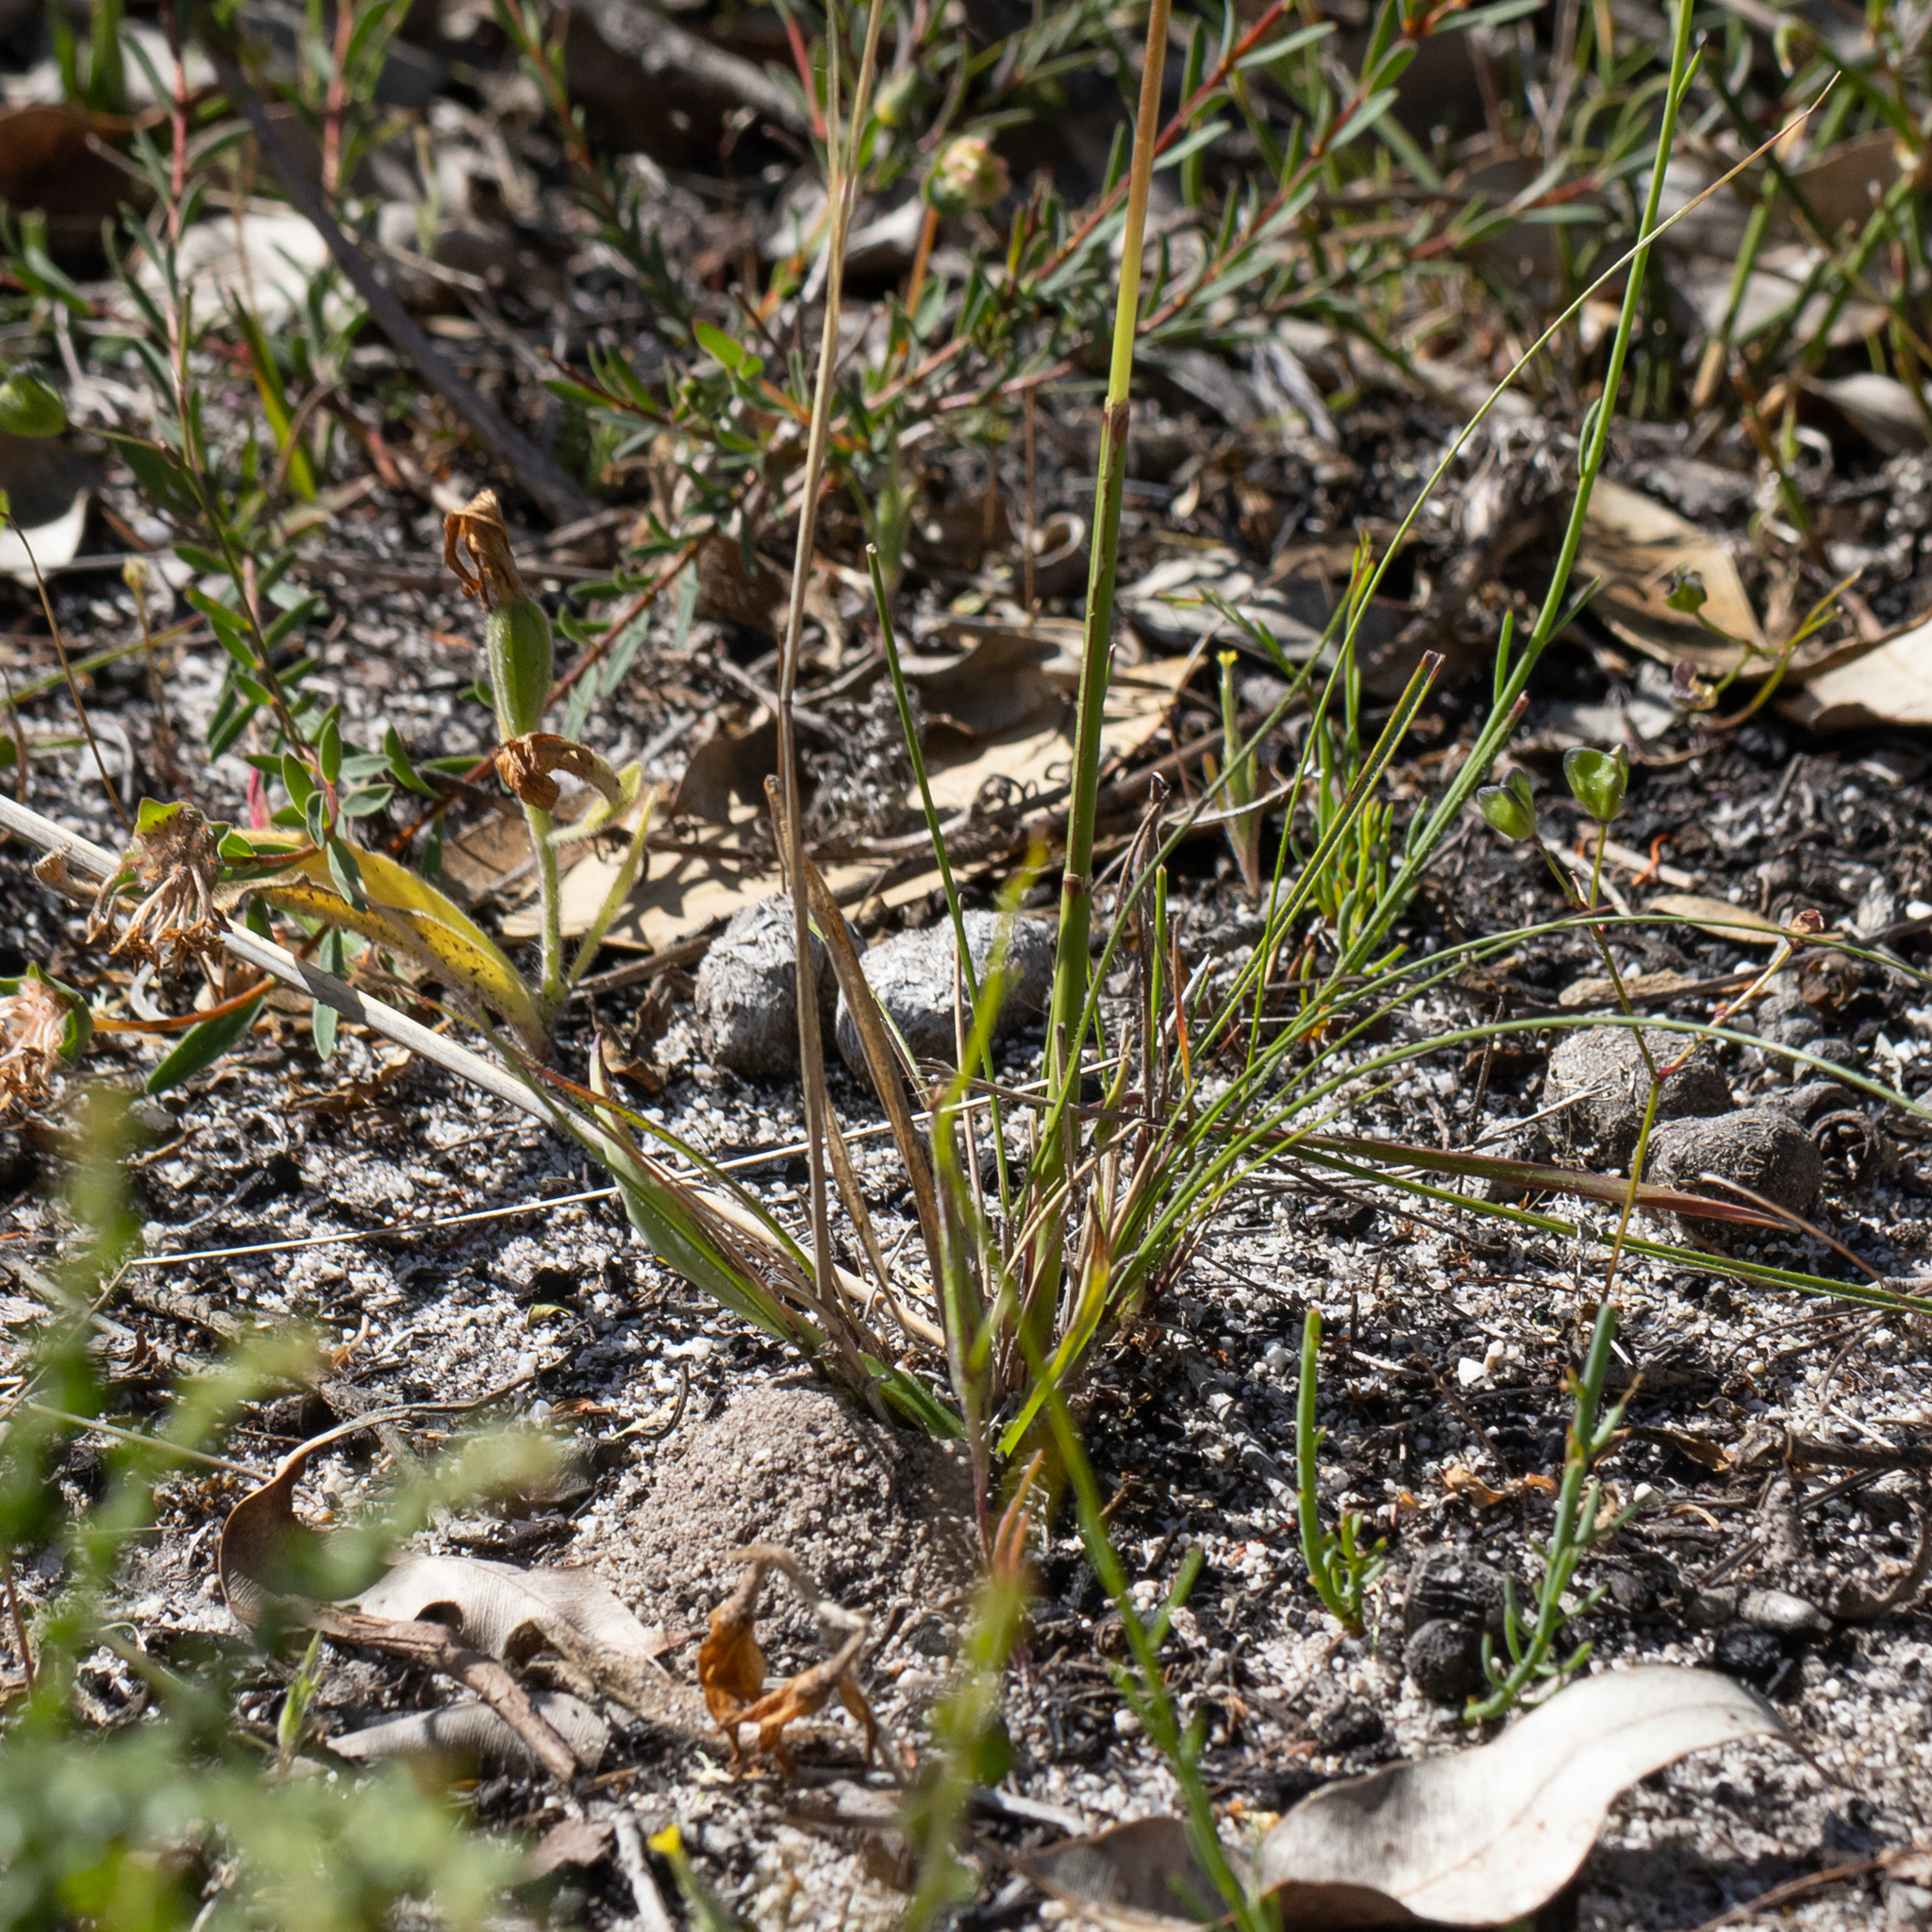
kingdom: Plantae
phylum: Tracheophyta
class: Liliopsida
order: Poales
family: Poaceae
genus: Austrostipa
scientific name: Austrostipa mollis
